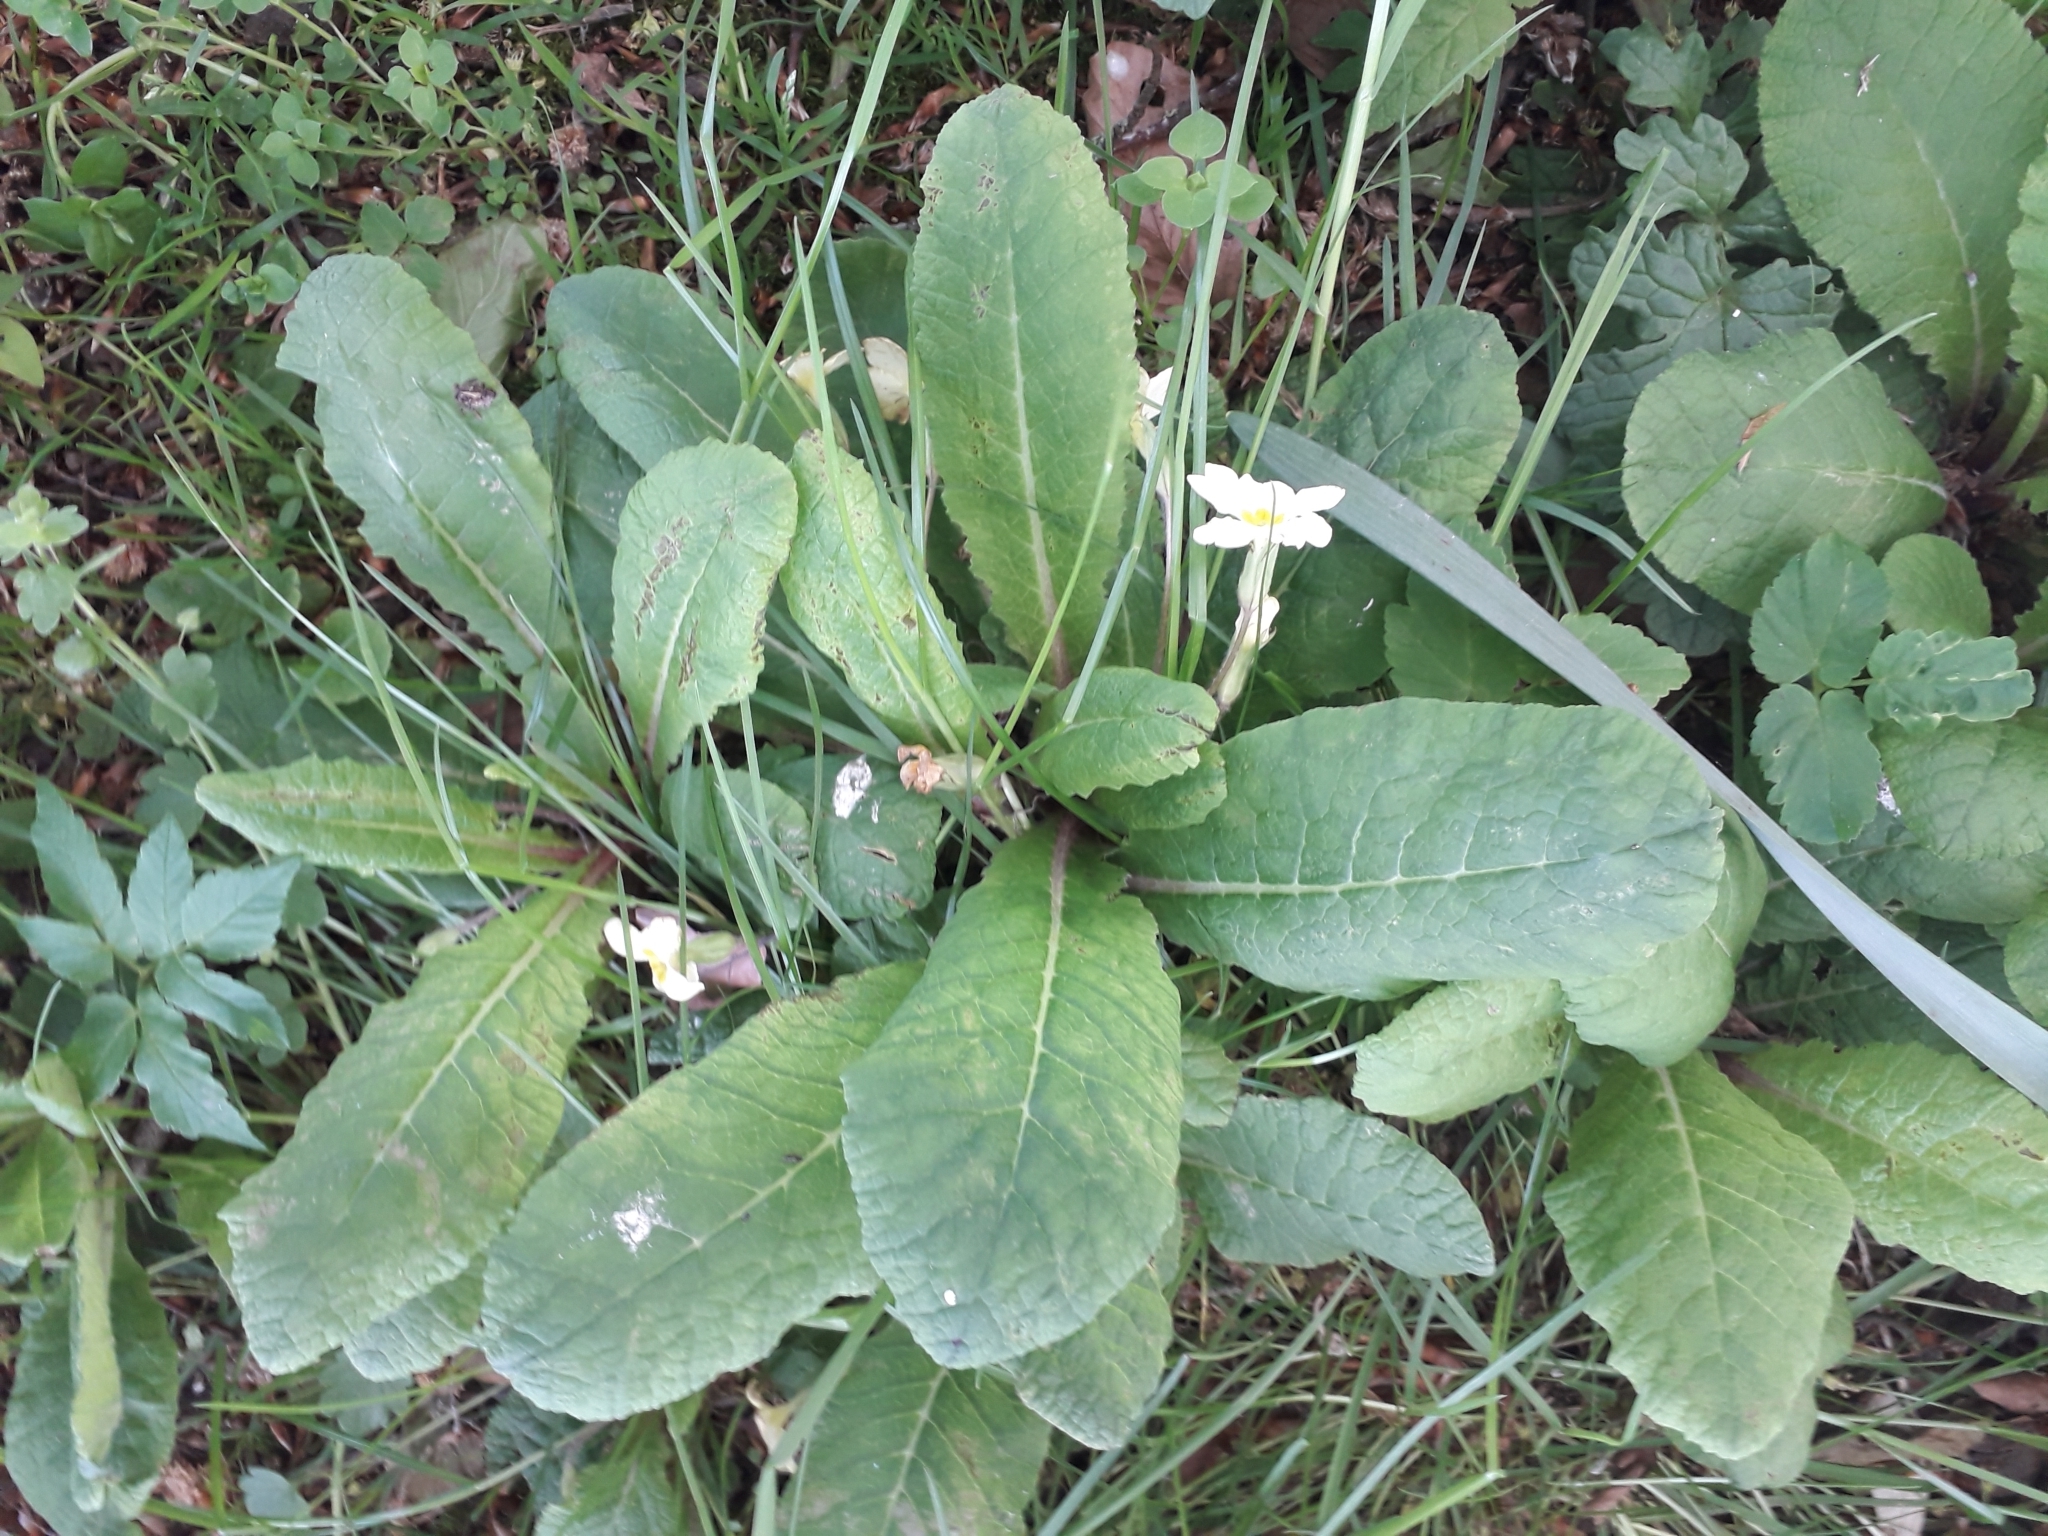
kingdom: Plantae
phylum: Tracheophyta
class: Magnoliopsida
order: Ericales
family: Primulaceae
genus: Primula
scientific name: Primula vulgaris
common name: Primrose
